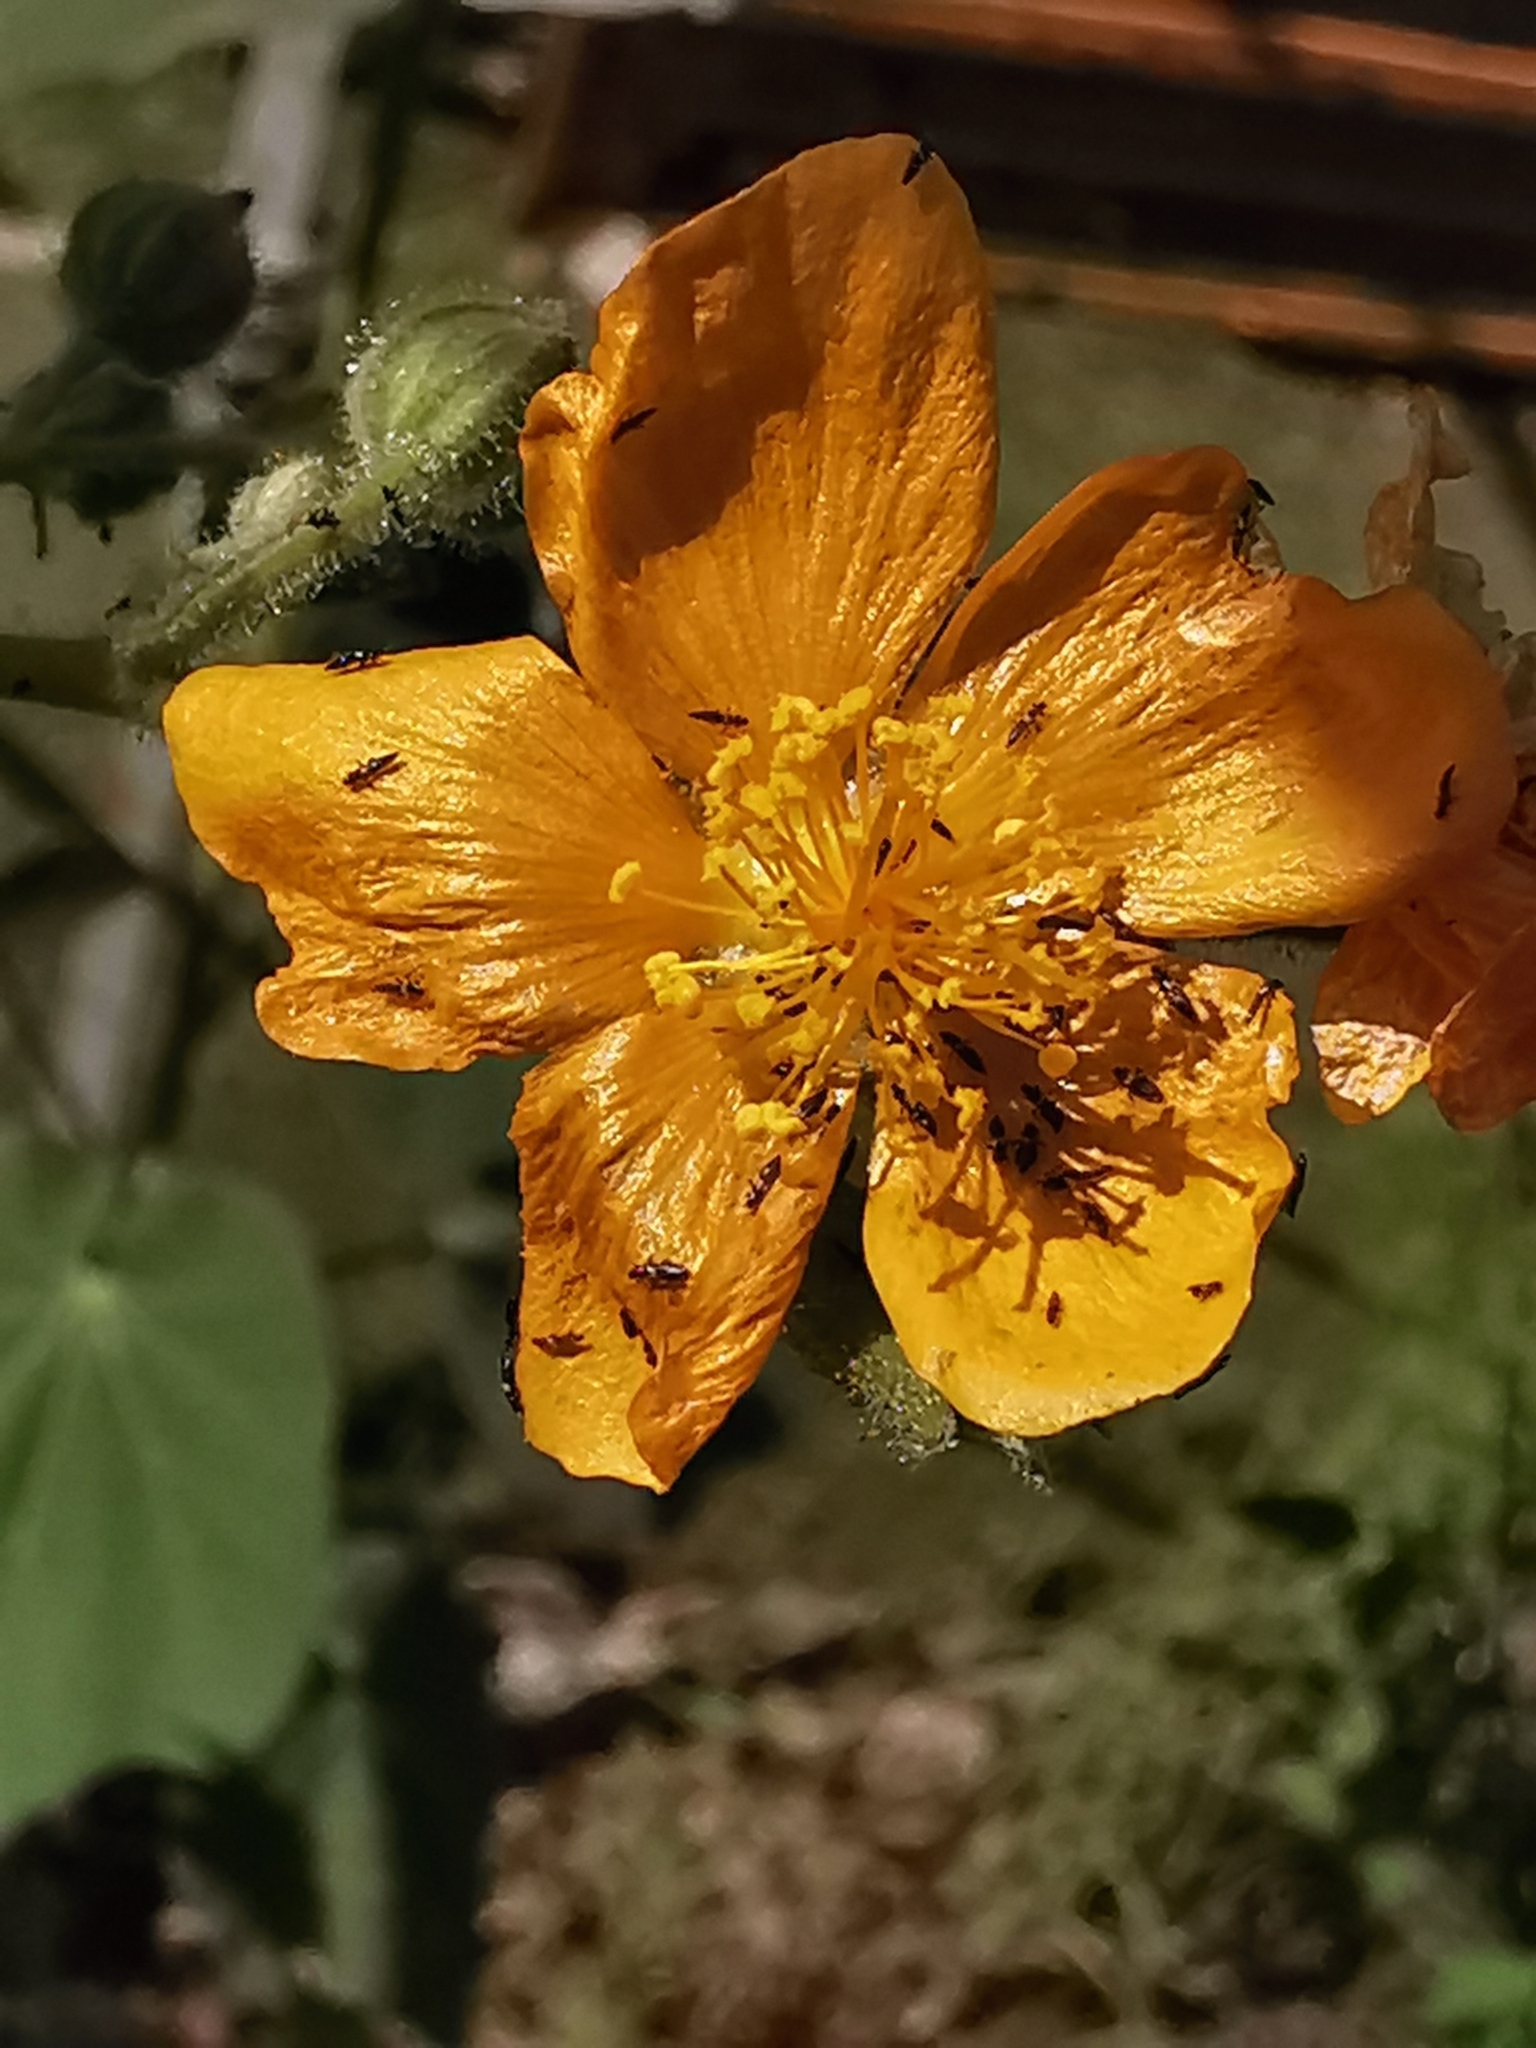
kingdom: Plantae
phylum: Tracheophyta
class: Magnoliopsida
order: Malvales
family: Malvaceae
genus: Allowissadula
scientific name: Allowissadula holosericea
